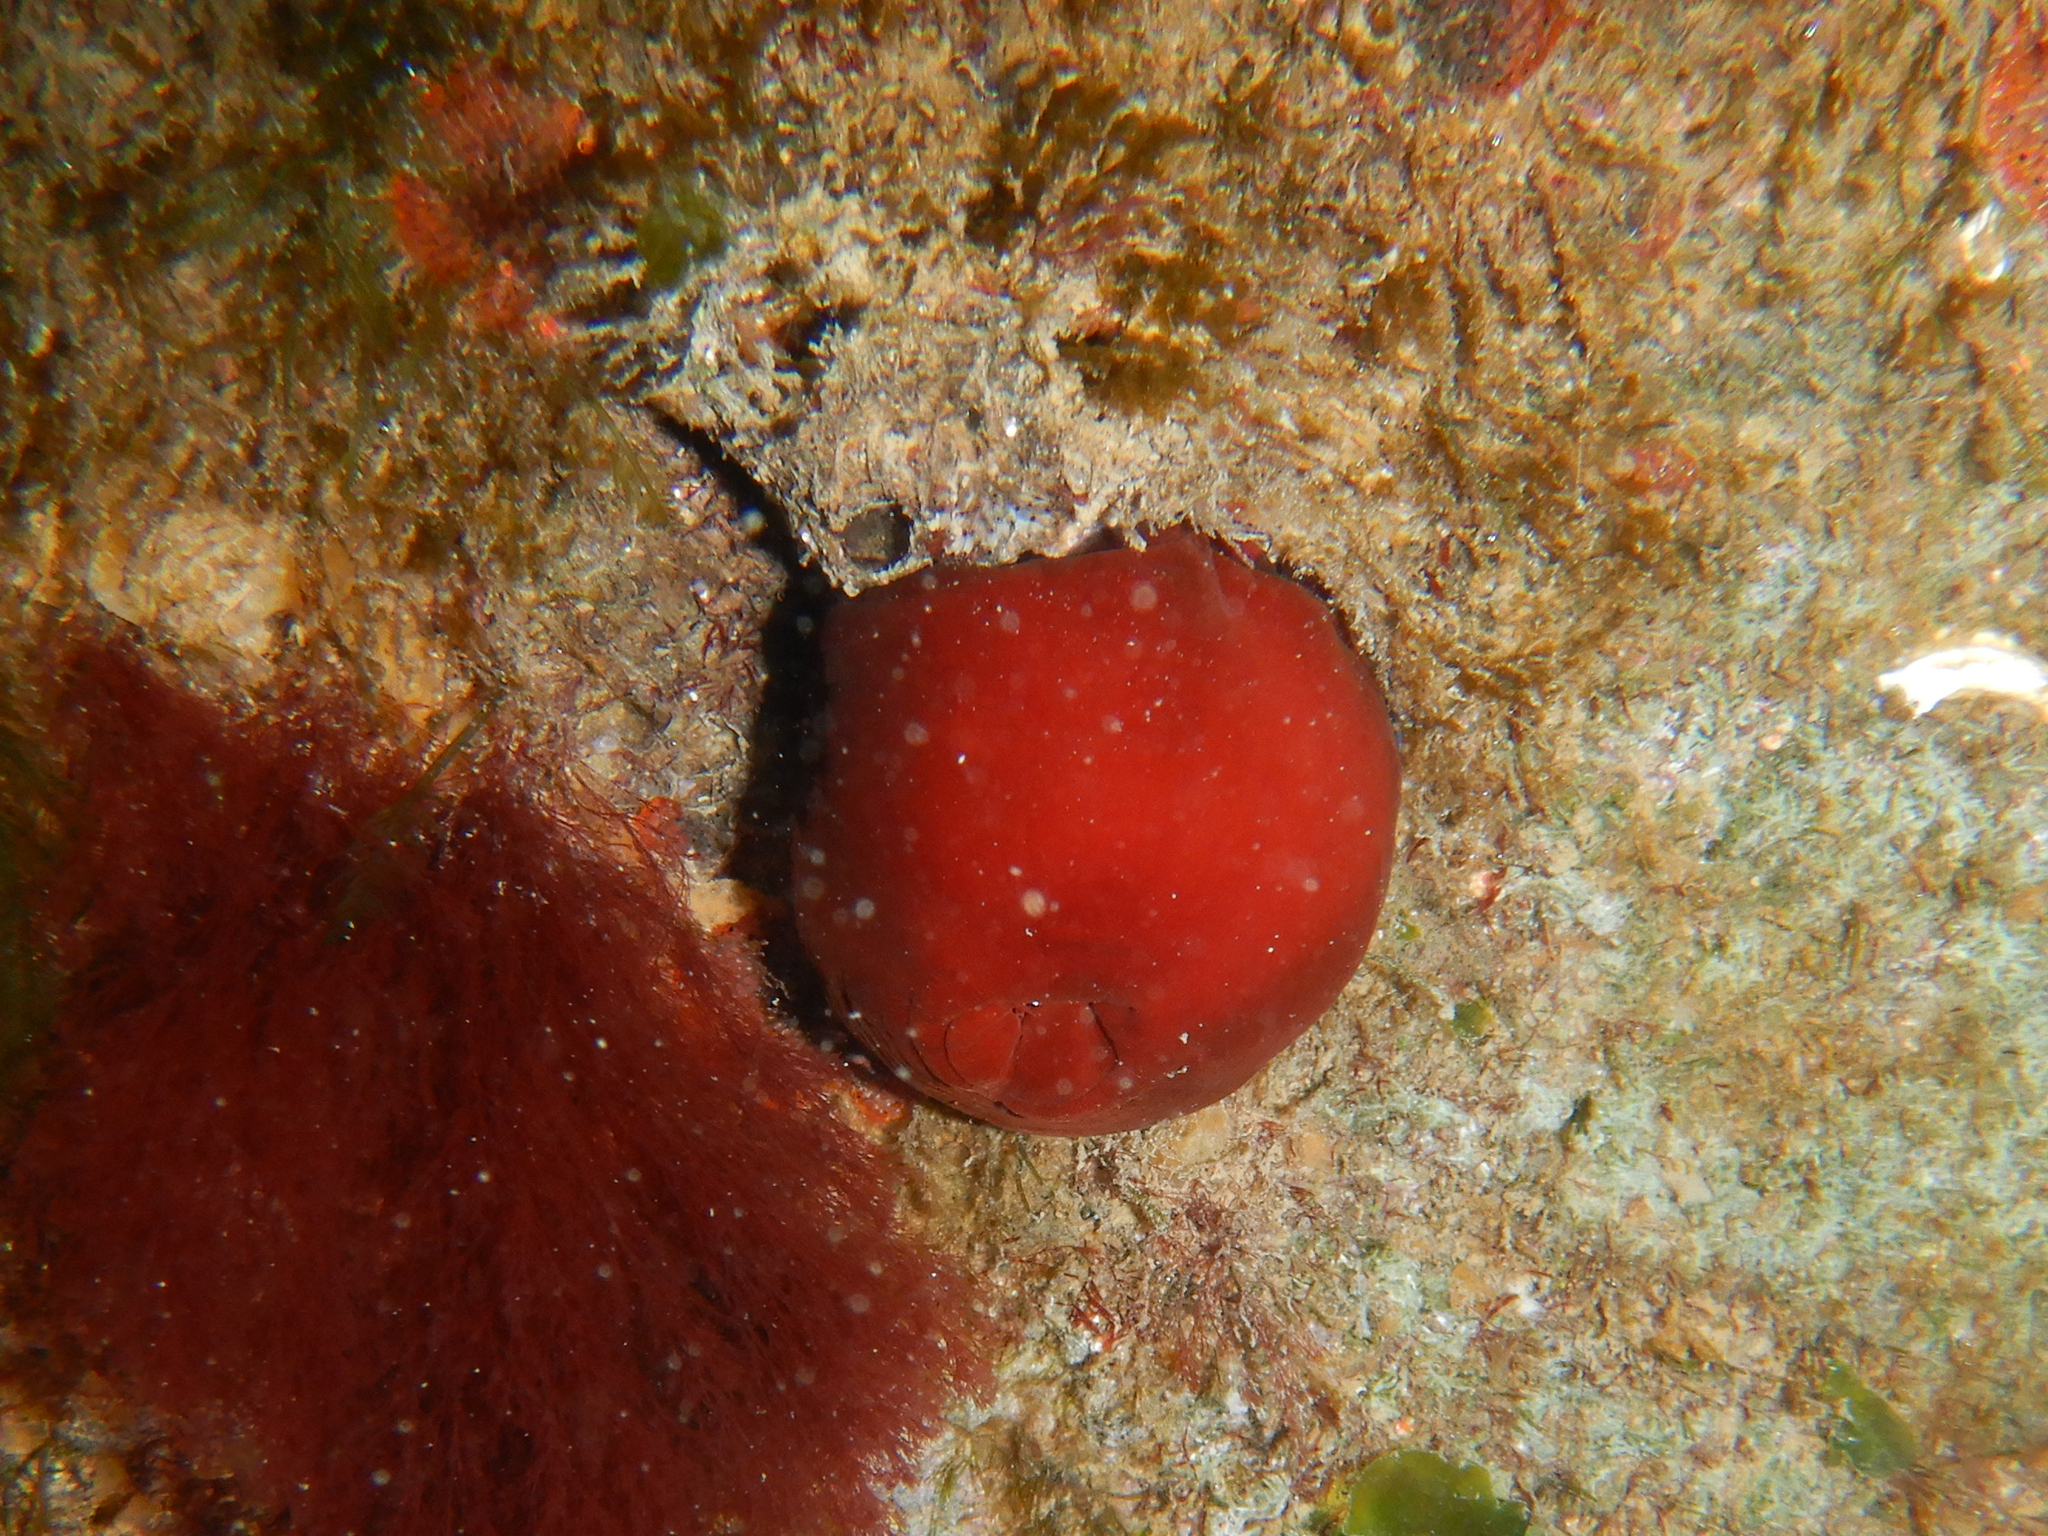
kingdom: Animalia
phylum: Cnidaria
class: Anthozoa
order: Actiniaria
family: Actiniidae
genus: Actinia
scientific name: Actinia mediterranea
